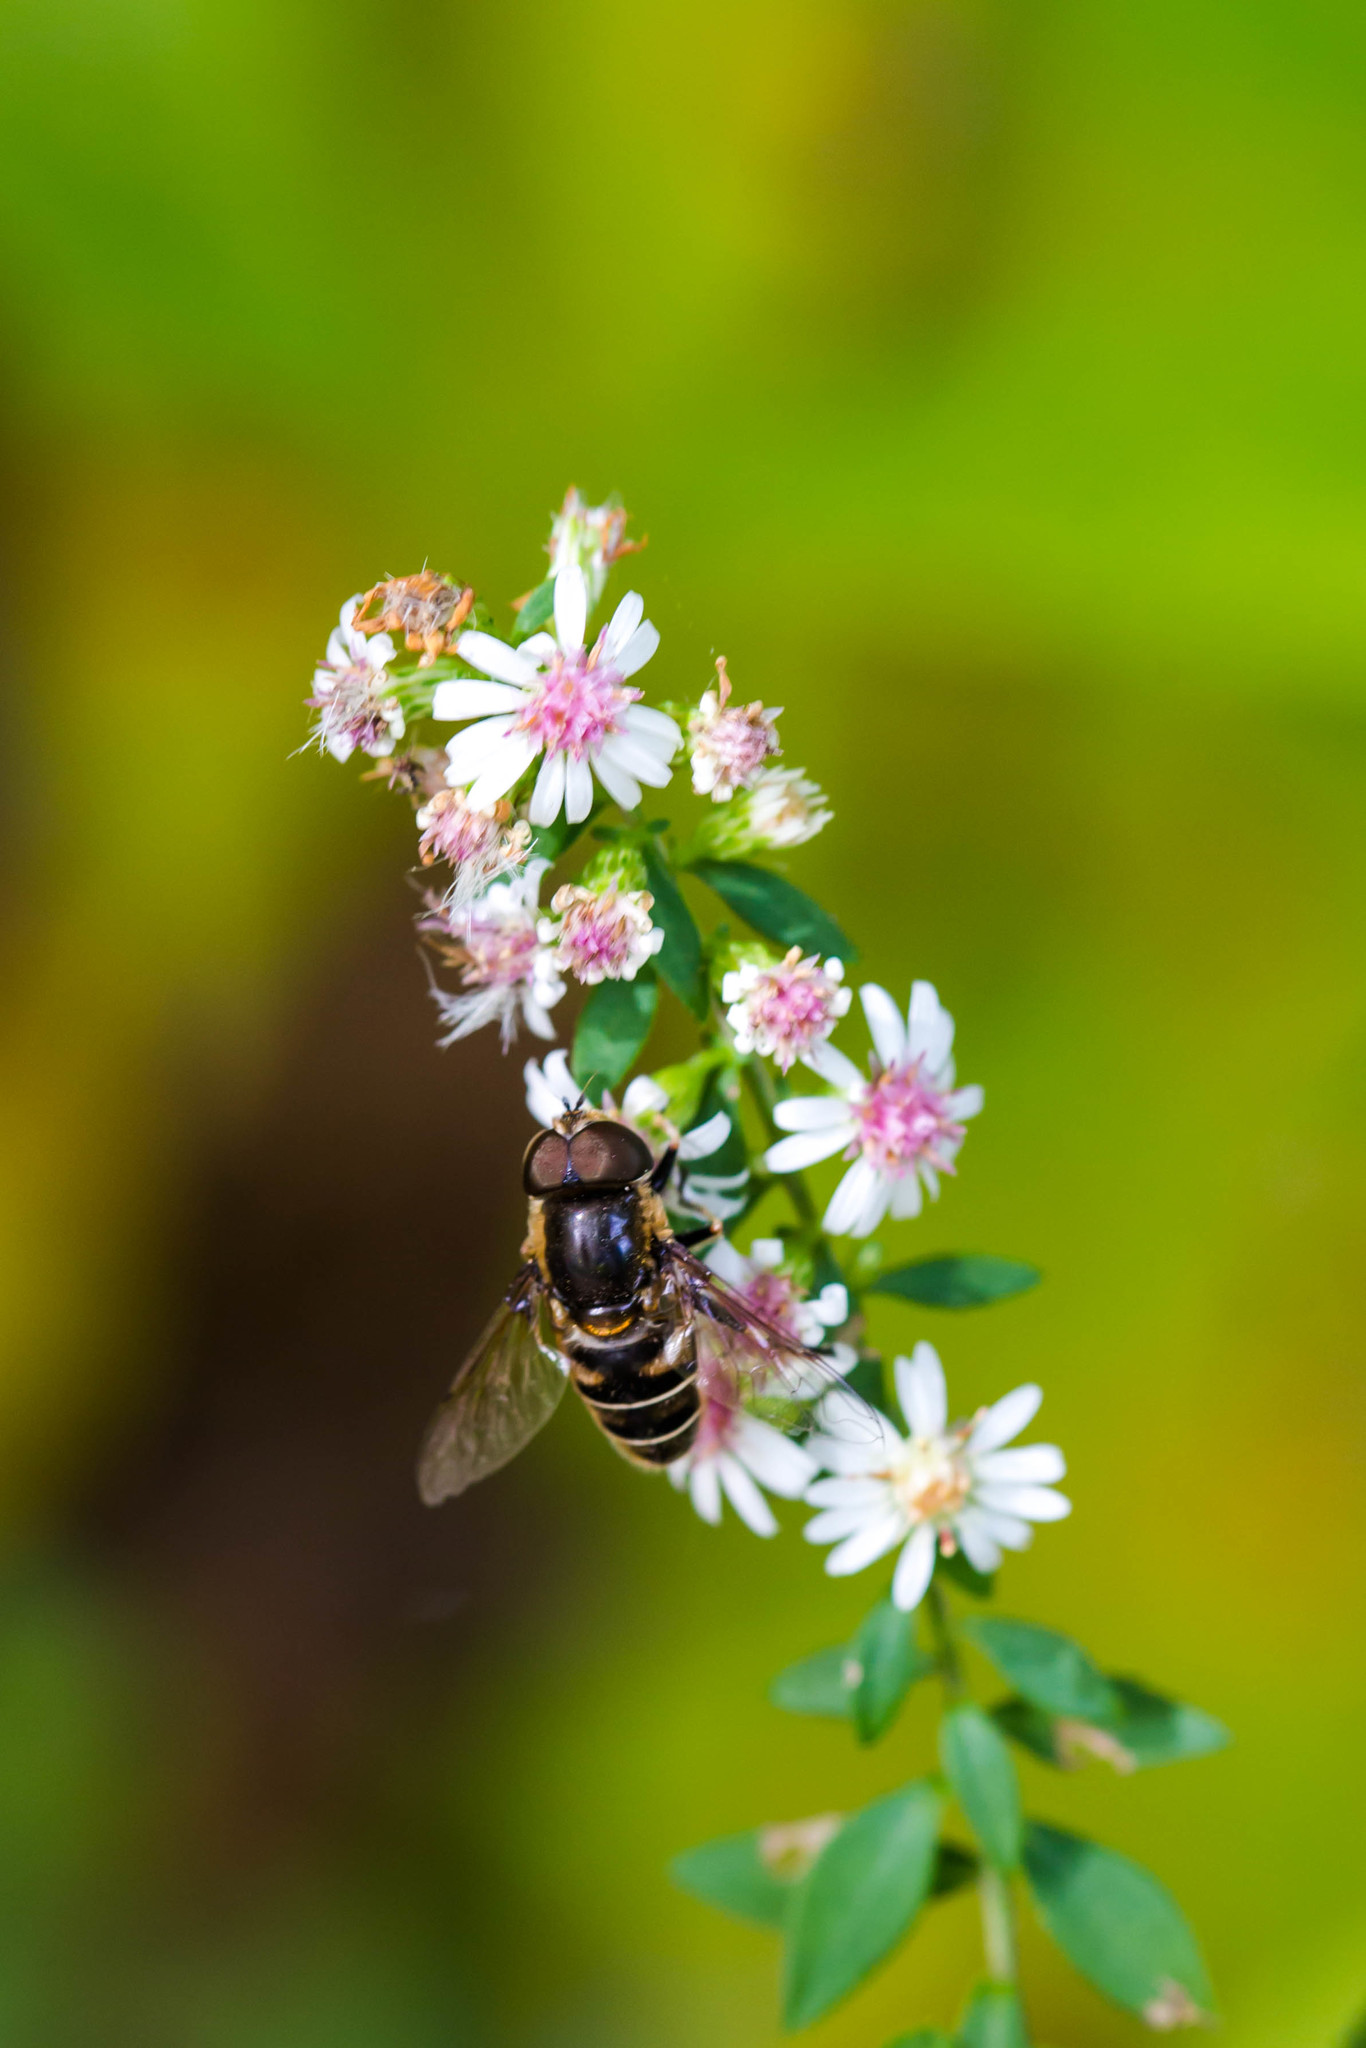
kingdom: Animalia
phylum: Arthropoda
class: Insecta
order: Diptera
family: Syrphidae
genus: Eristalis
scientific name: Eristalis dimidiata
